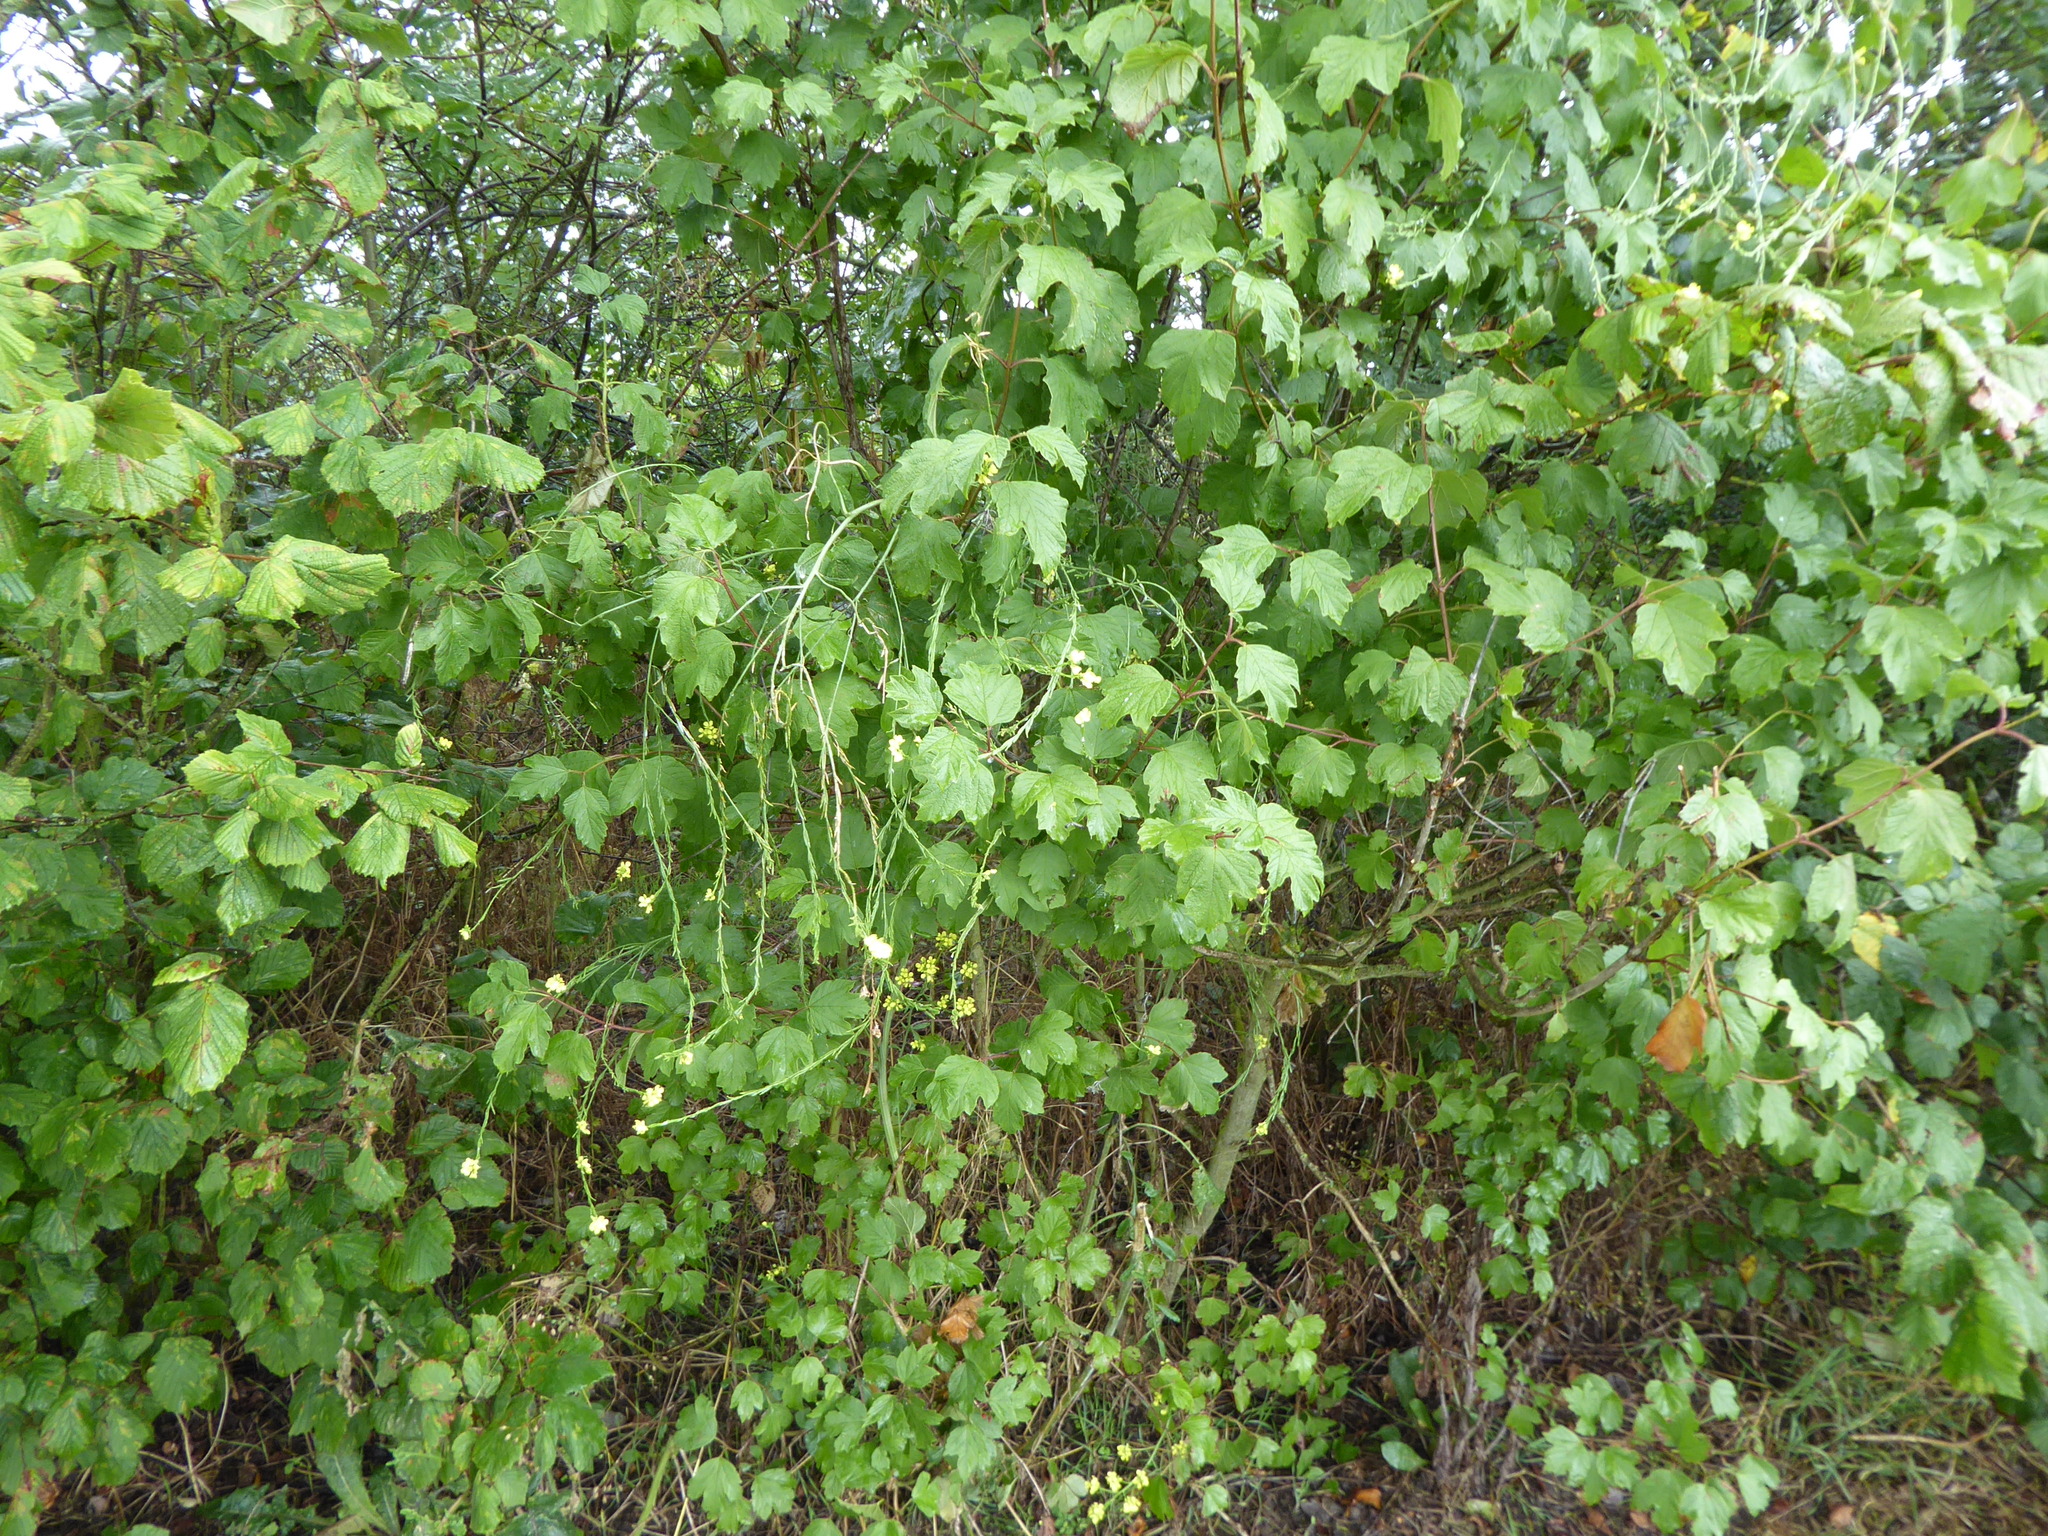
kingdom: Plantae
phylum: Tracheophyta
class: Magnoliopsida
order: Brassicales
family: Brassicaceae
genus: Hirschfeldia
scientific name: Hirschfeldia incana
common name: Hoary mustard
